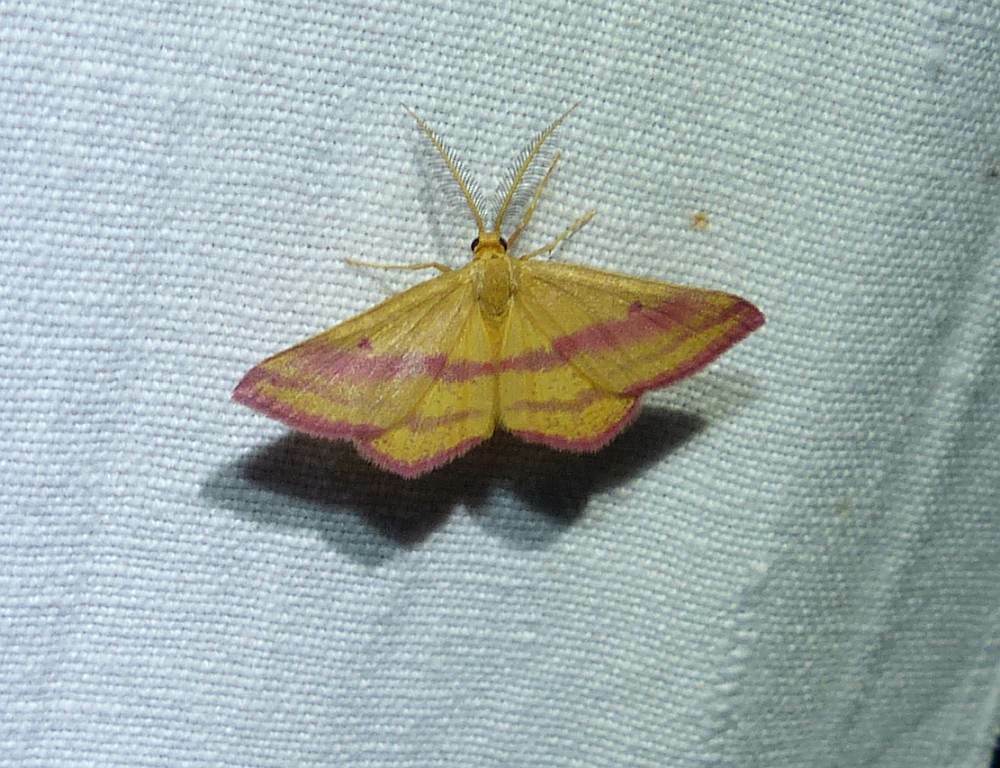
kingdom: Animalia
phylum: Arthropoda
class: Insecta
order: Lepidoptera
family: Geometridae
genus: Haematopis
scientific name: Haematopis grataria
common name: Chickweed geometer
